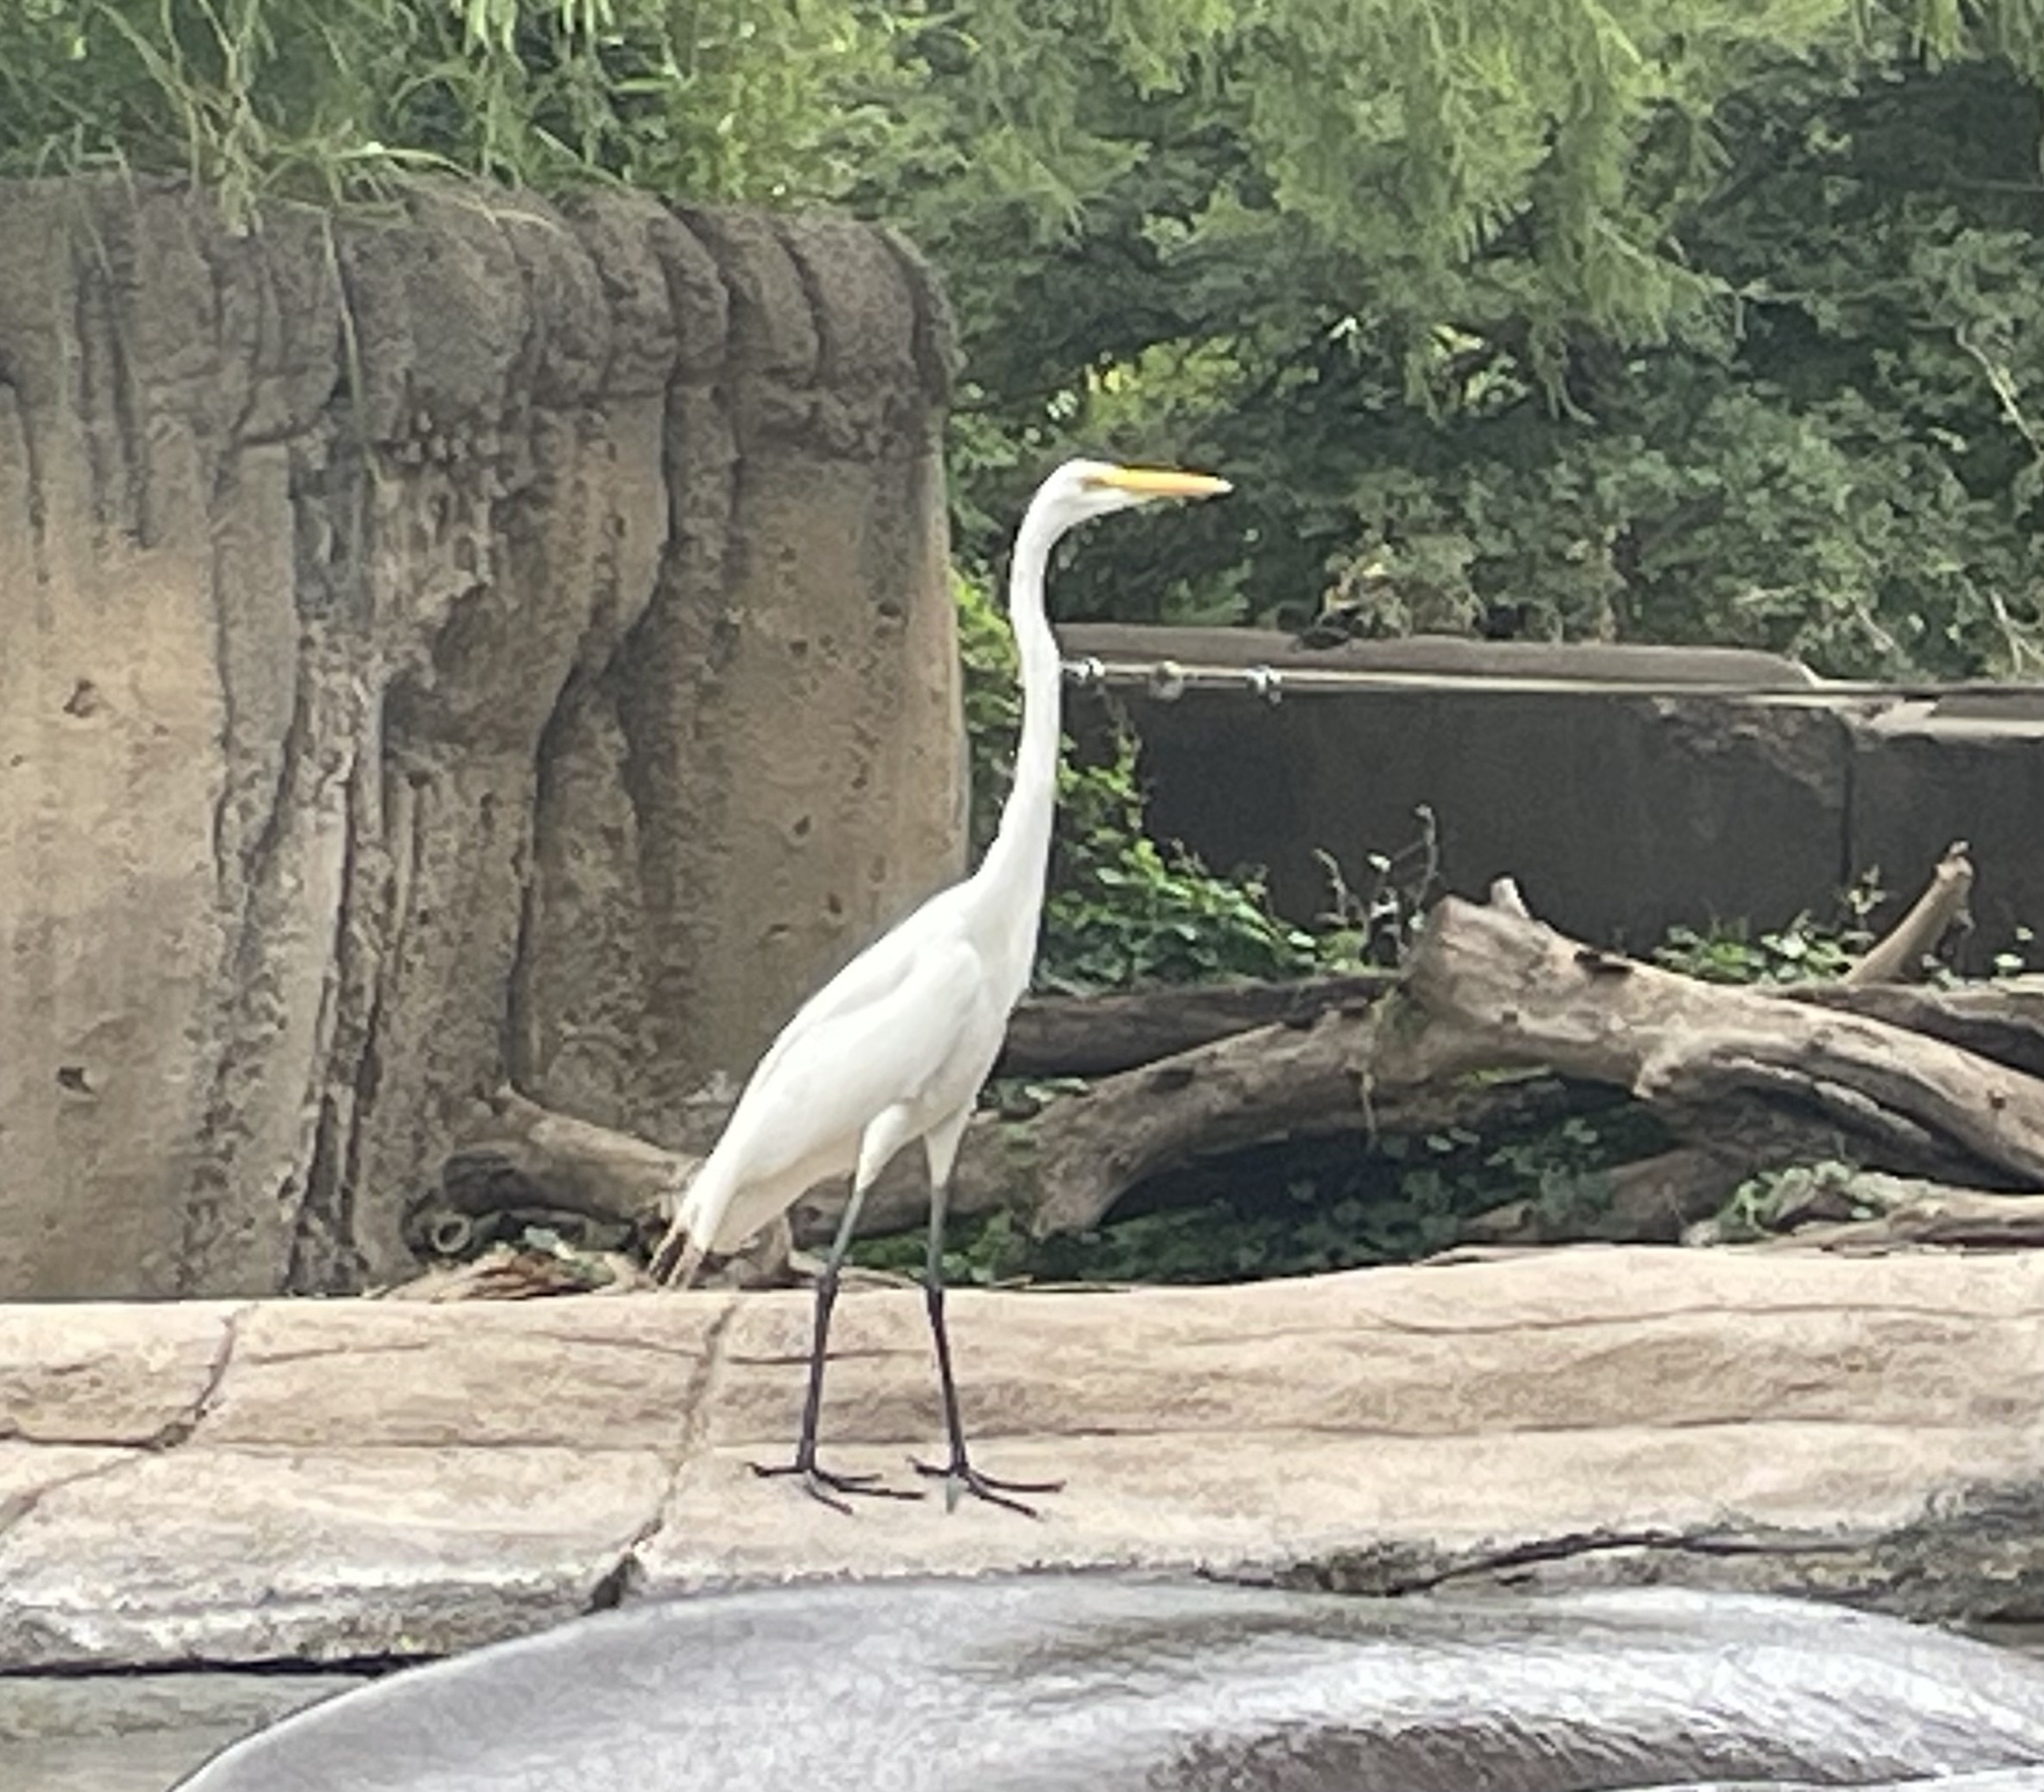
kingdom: Animalia
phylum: Chordata
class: Aves
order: Pelecaniformes
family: Ardeidae
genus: Ardea
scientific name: Ardea alba
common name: Great egret
